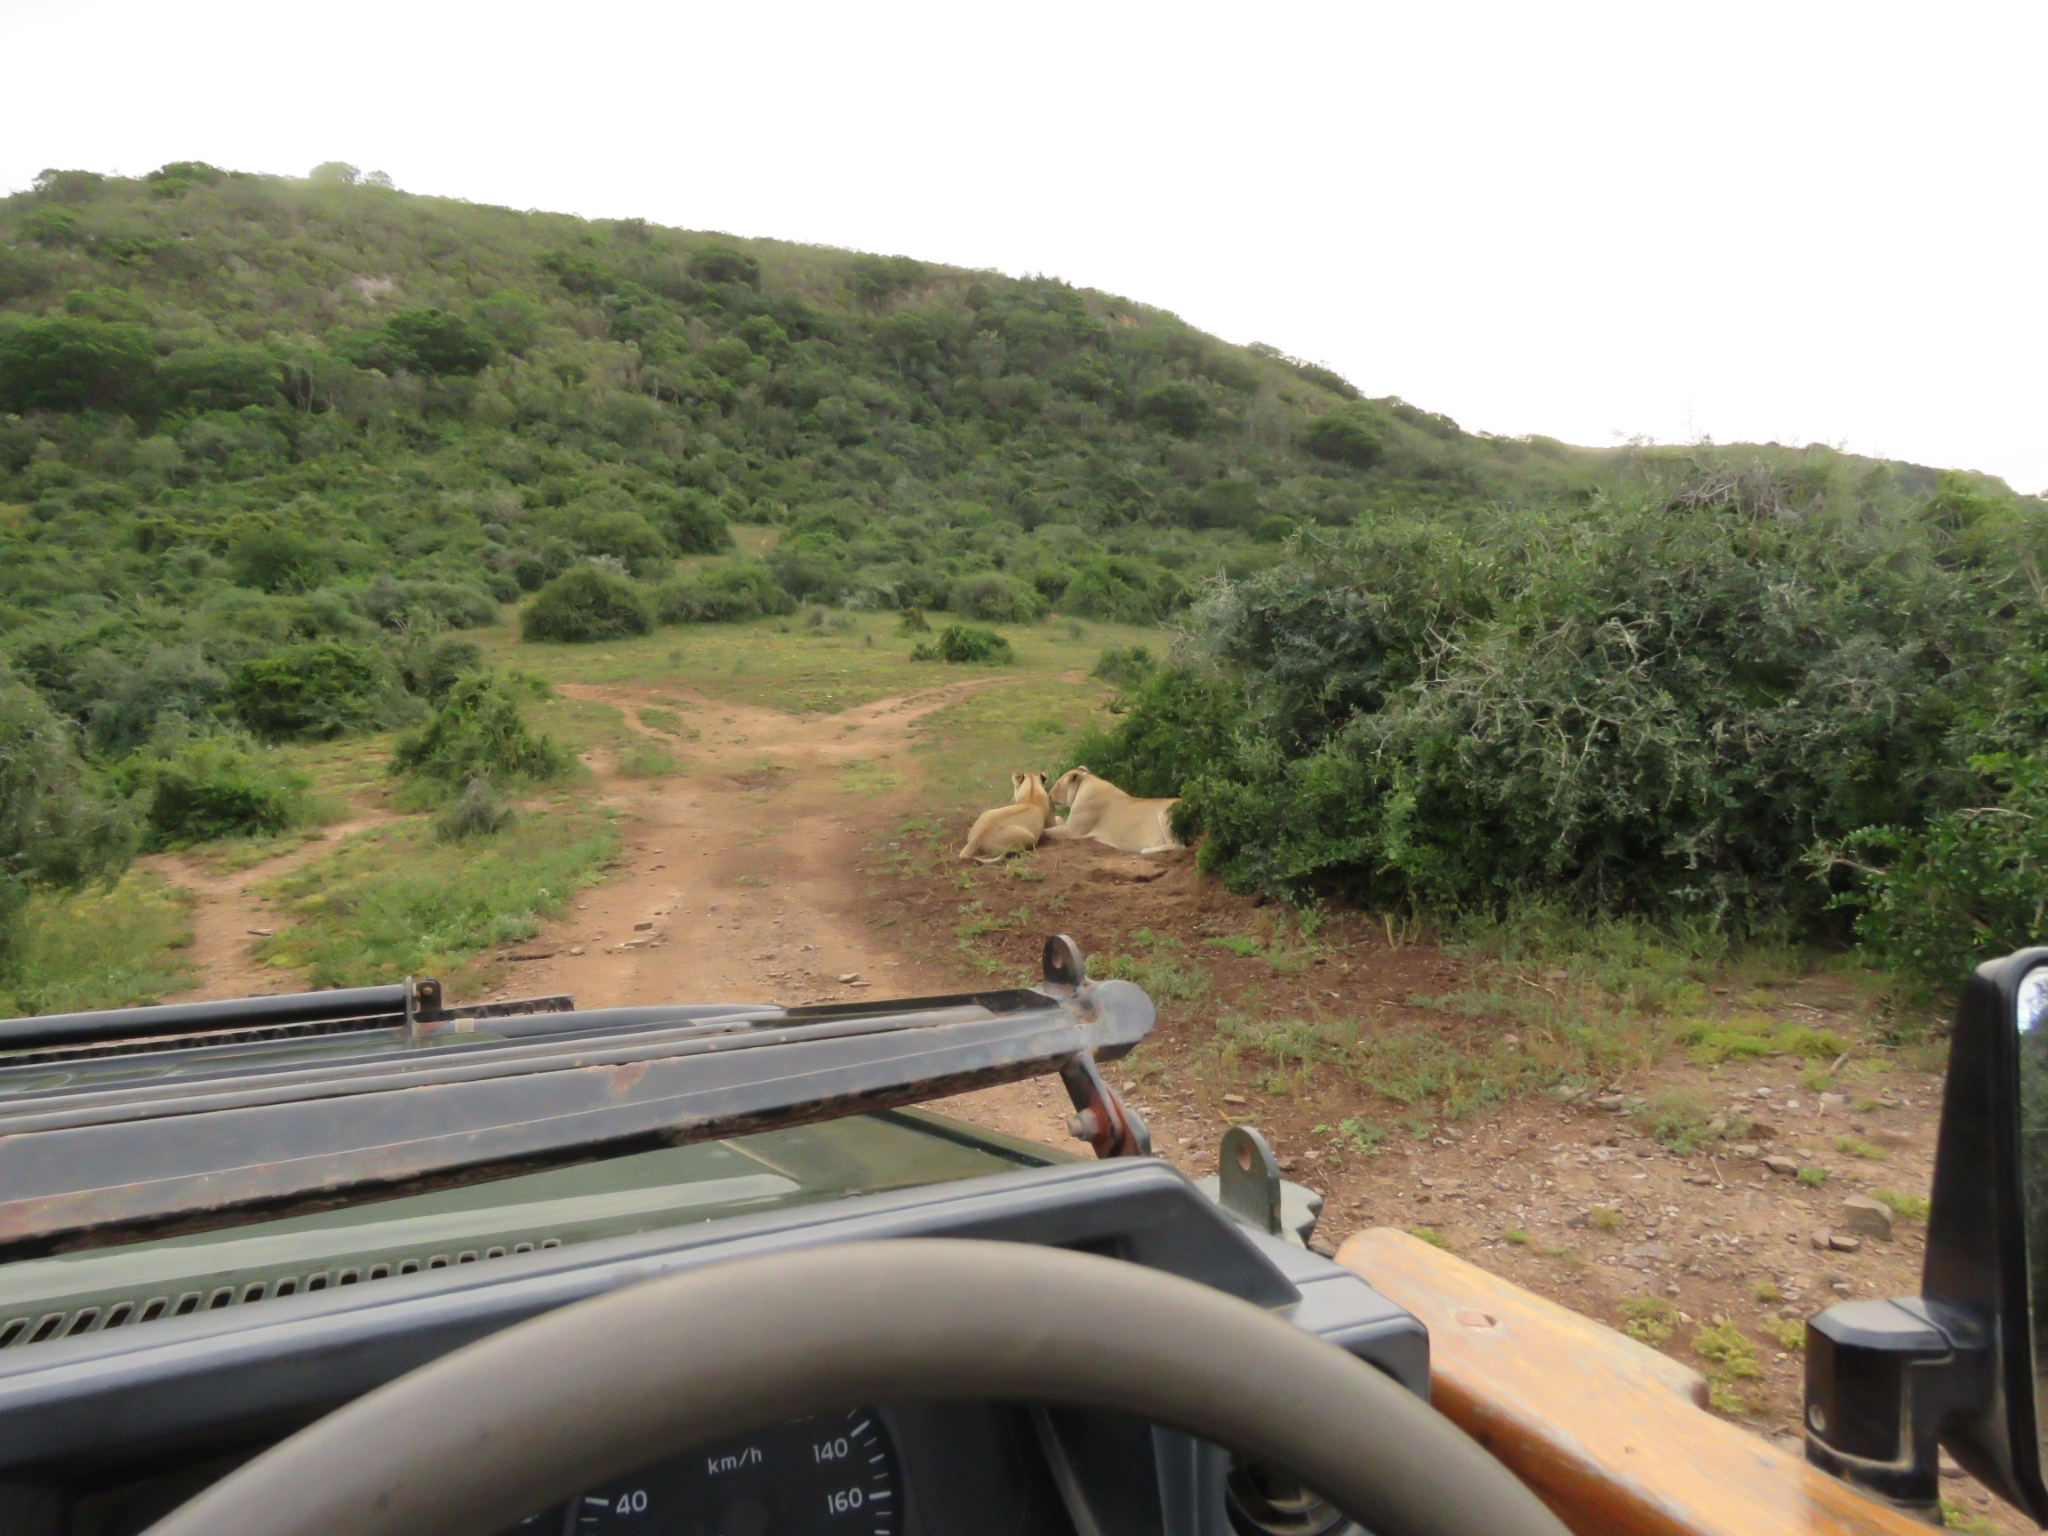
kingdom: Animalia
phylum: Chordata
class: Mammalia
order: Carnivora
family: Felidae
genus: Panthera
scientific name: Panthera leo
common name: Lion
